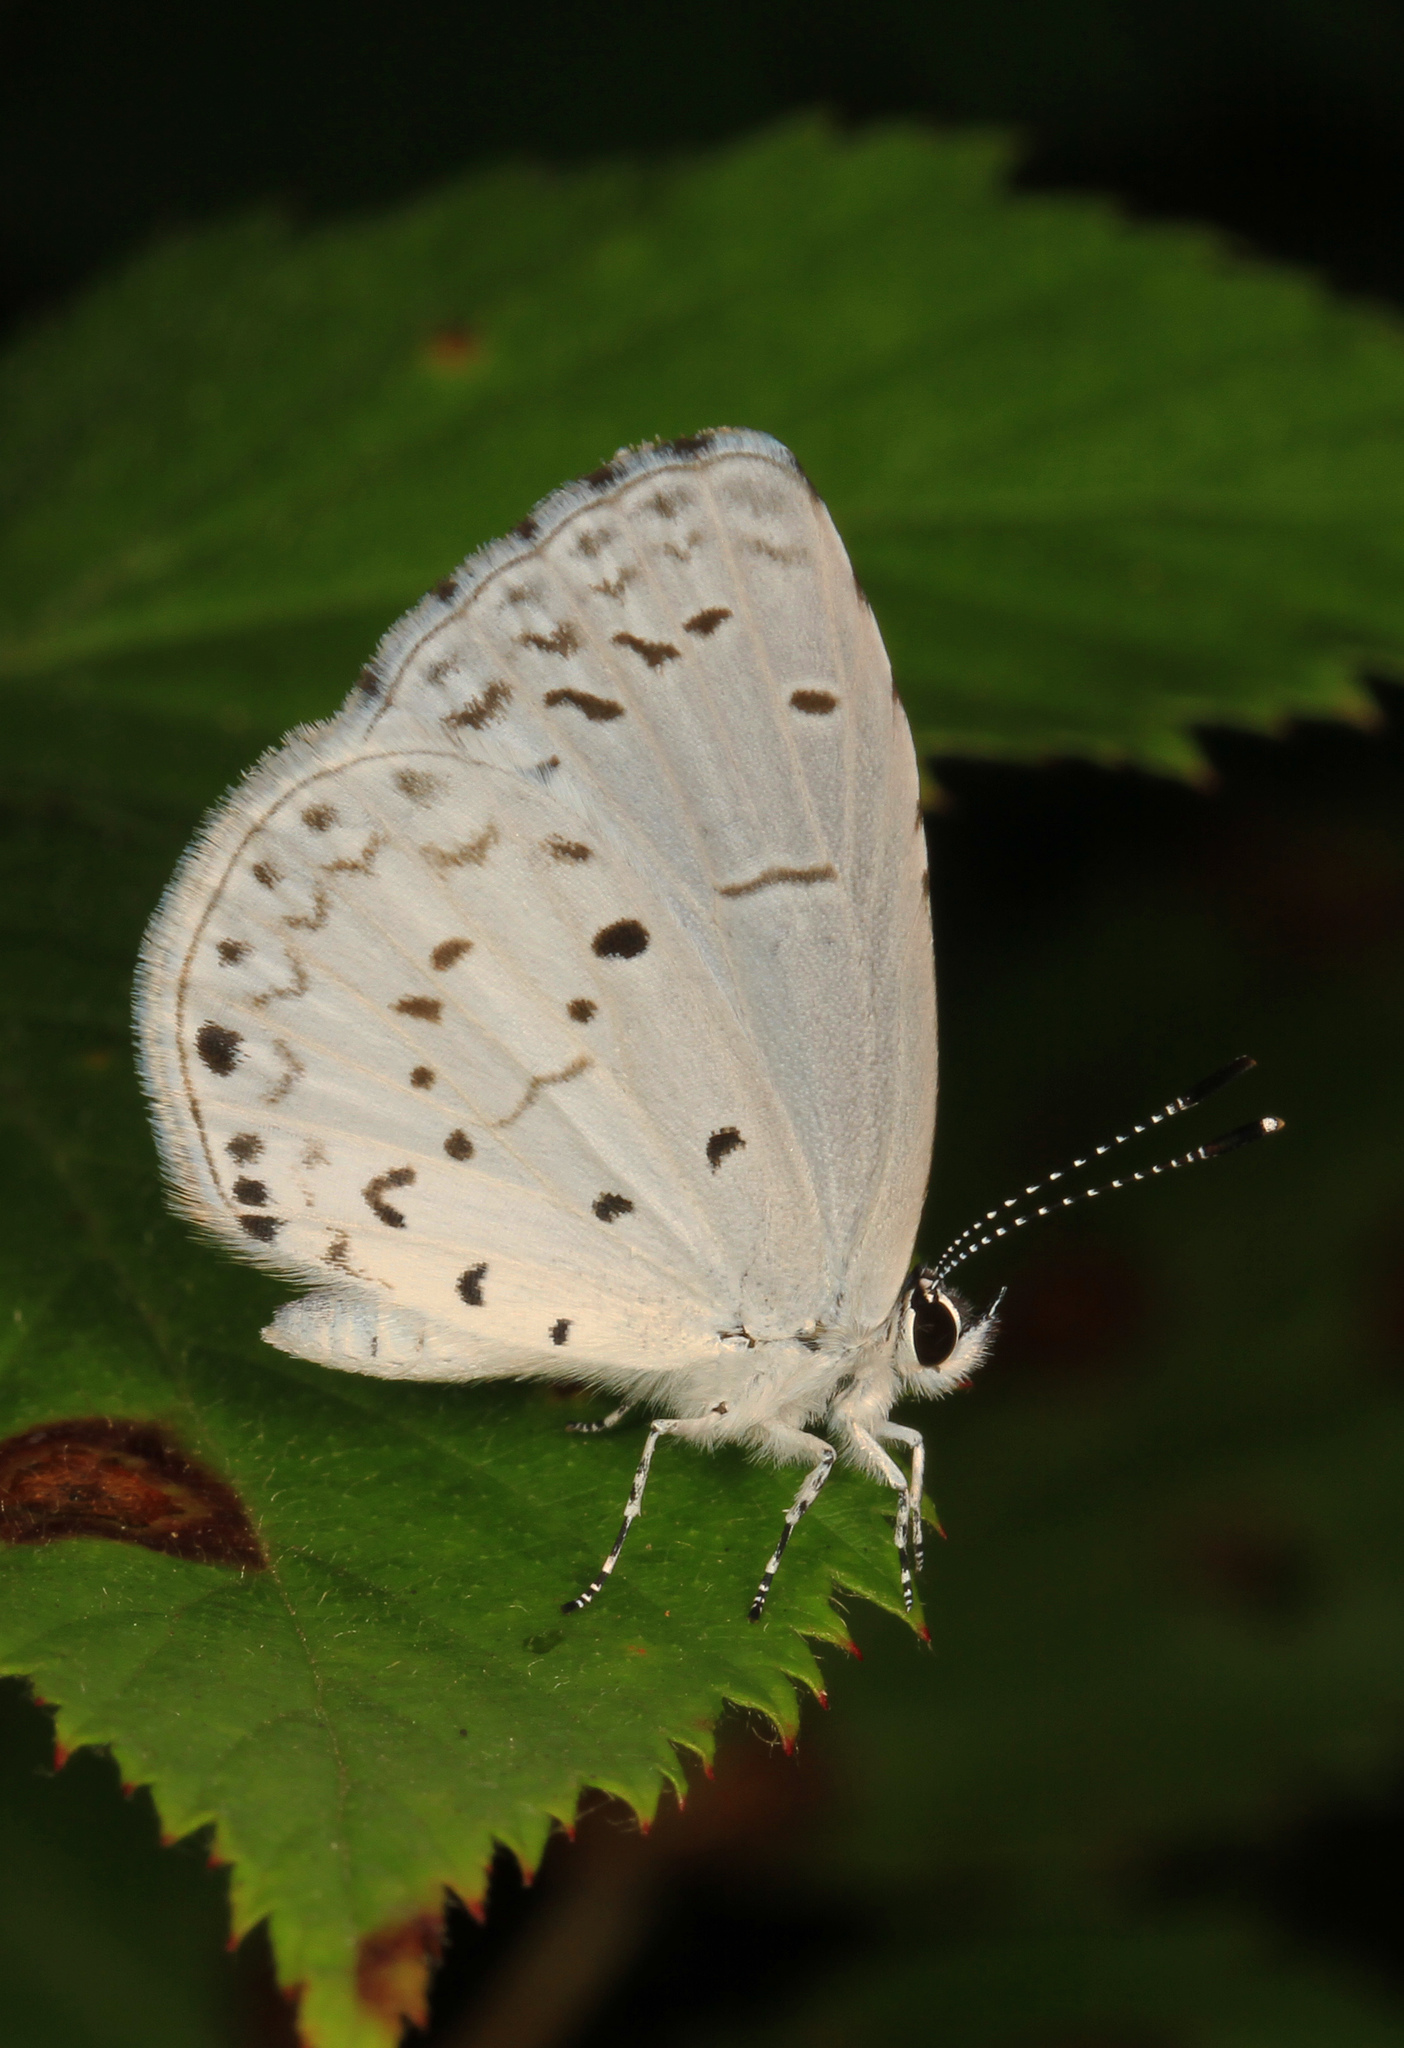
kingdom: Animalia
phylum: Arthropoda
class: Insecta
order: Lepidoptera
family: Lycaenidae
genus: Cyaniris
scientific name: Cyaniris neglecta
